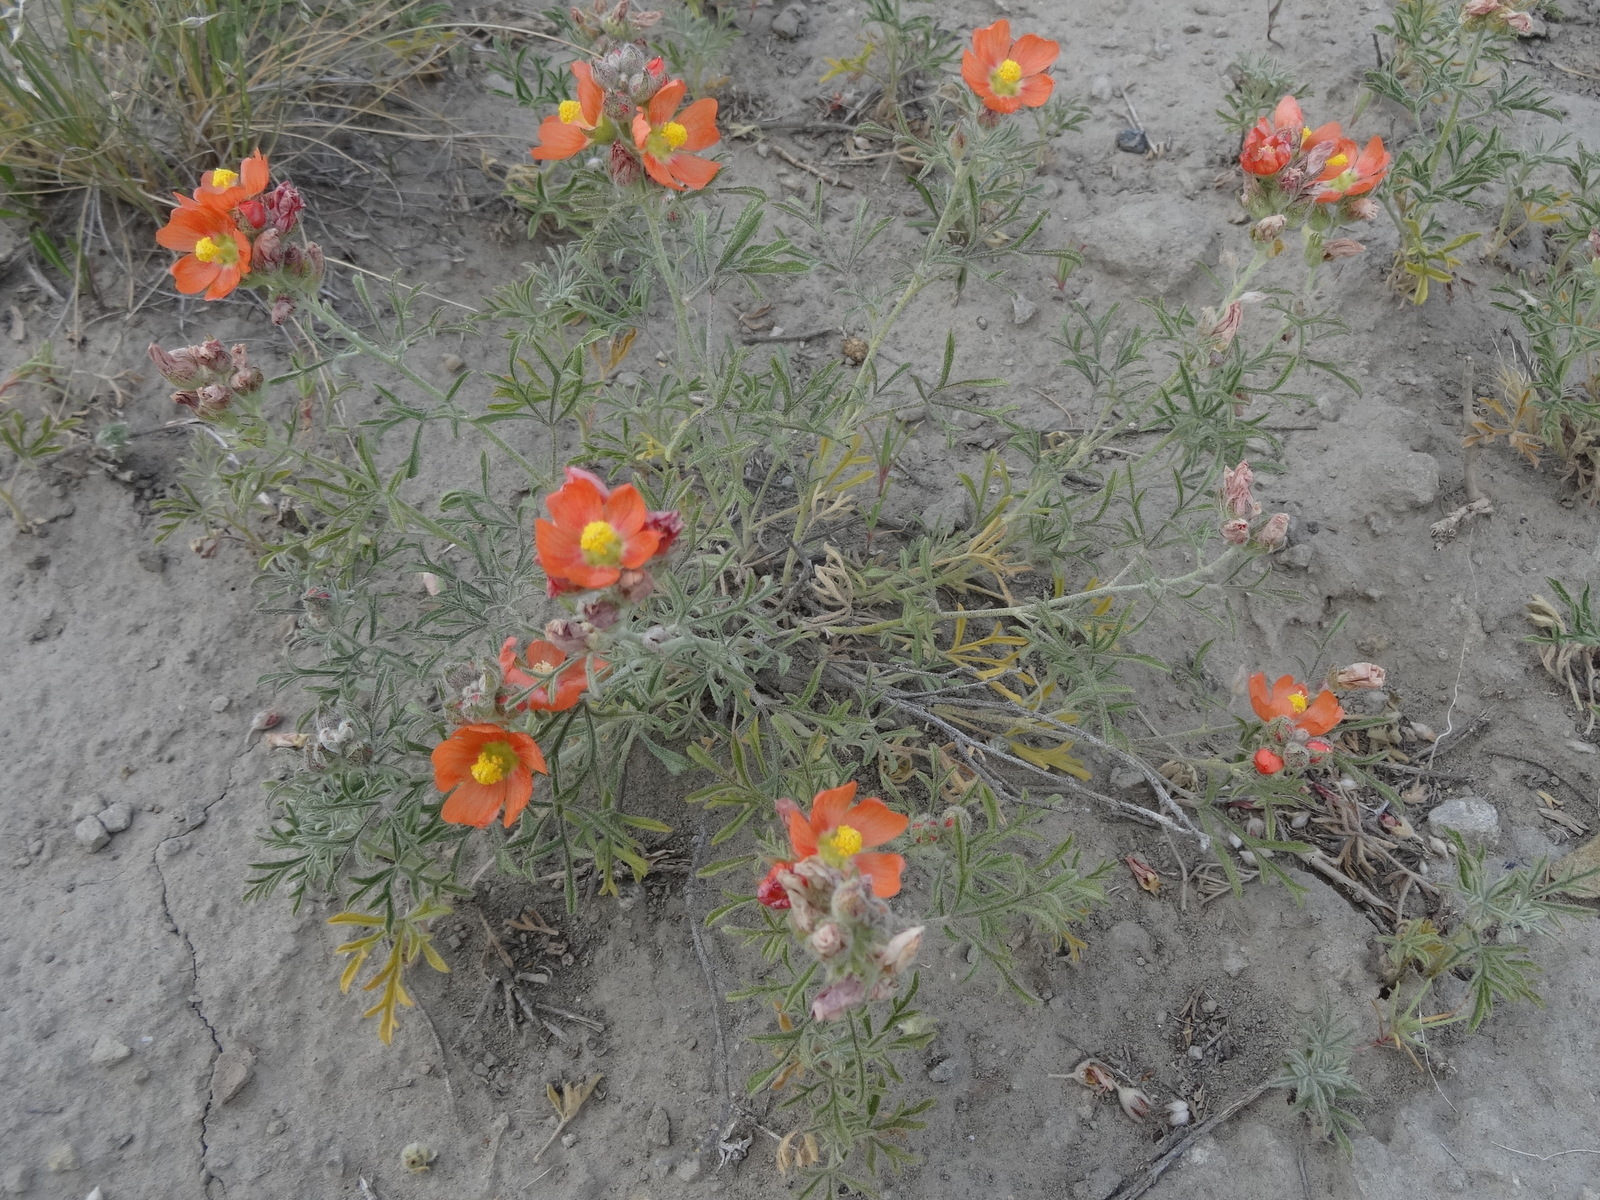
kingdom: Plantae
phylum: Tracheophyta
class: Magnoliopsida
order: Malvales
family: Malvaceae
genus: Sphaeralcea
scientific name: Sphaeralcea coccinea
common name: Moss-rose
